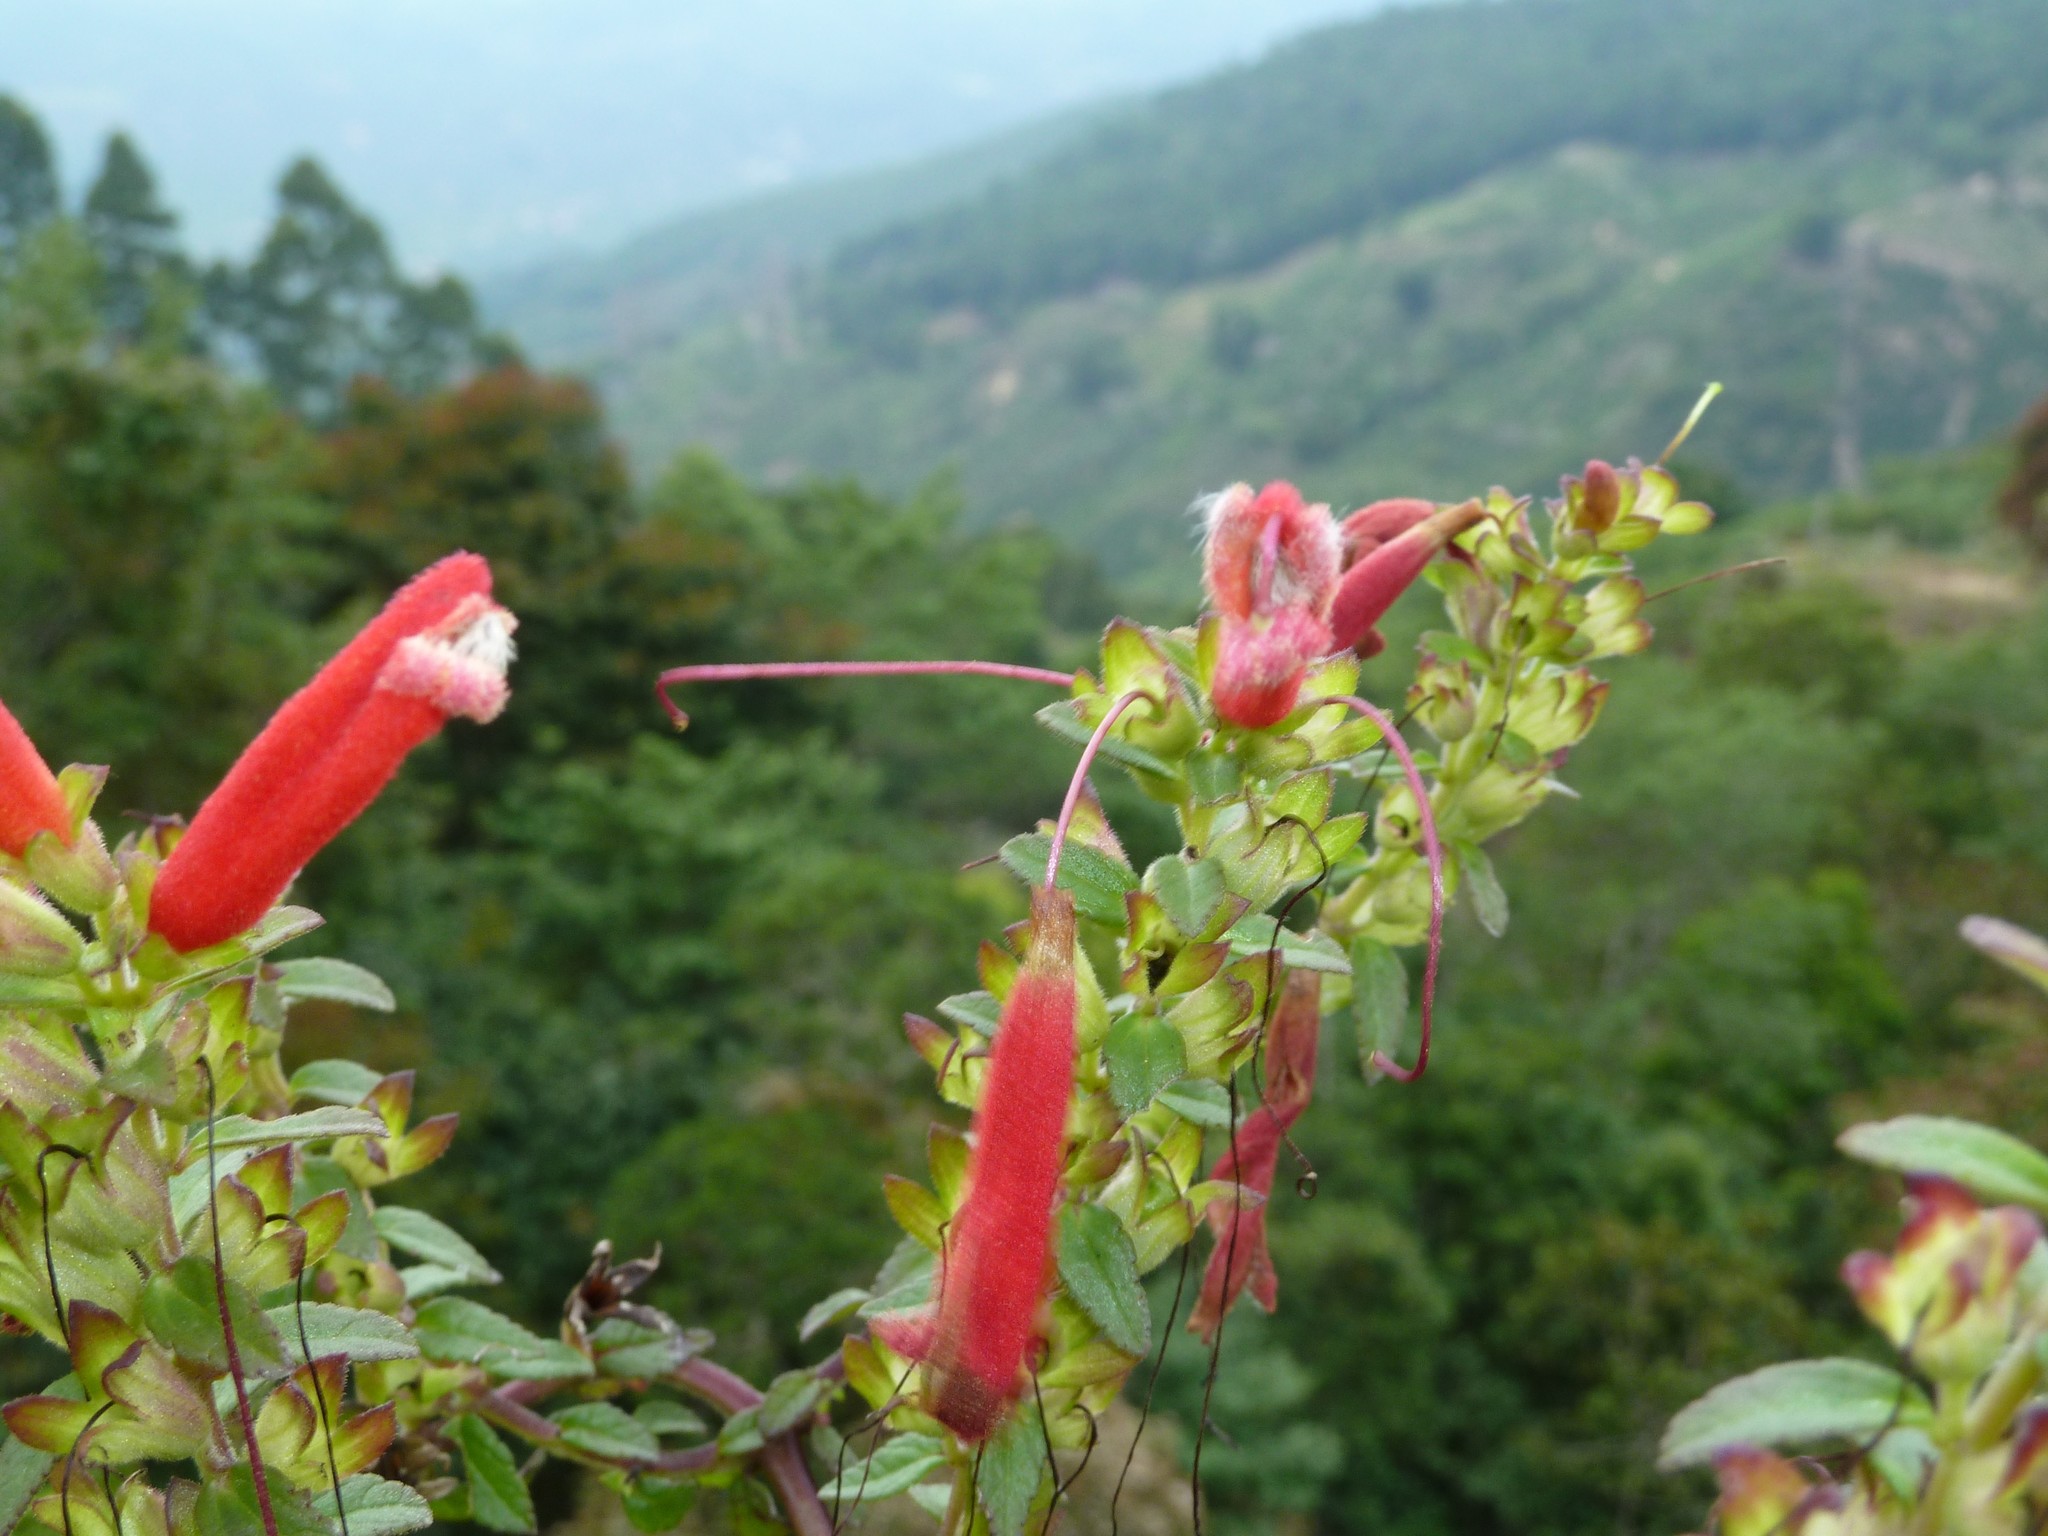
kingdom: Plantae
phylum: Tracheophyta
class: Magnoliopsida
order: Lamiales
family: Orobanchaceae
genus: Lamourouxia
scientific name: Lamourouxia gutierrezii
